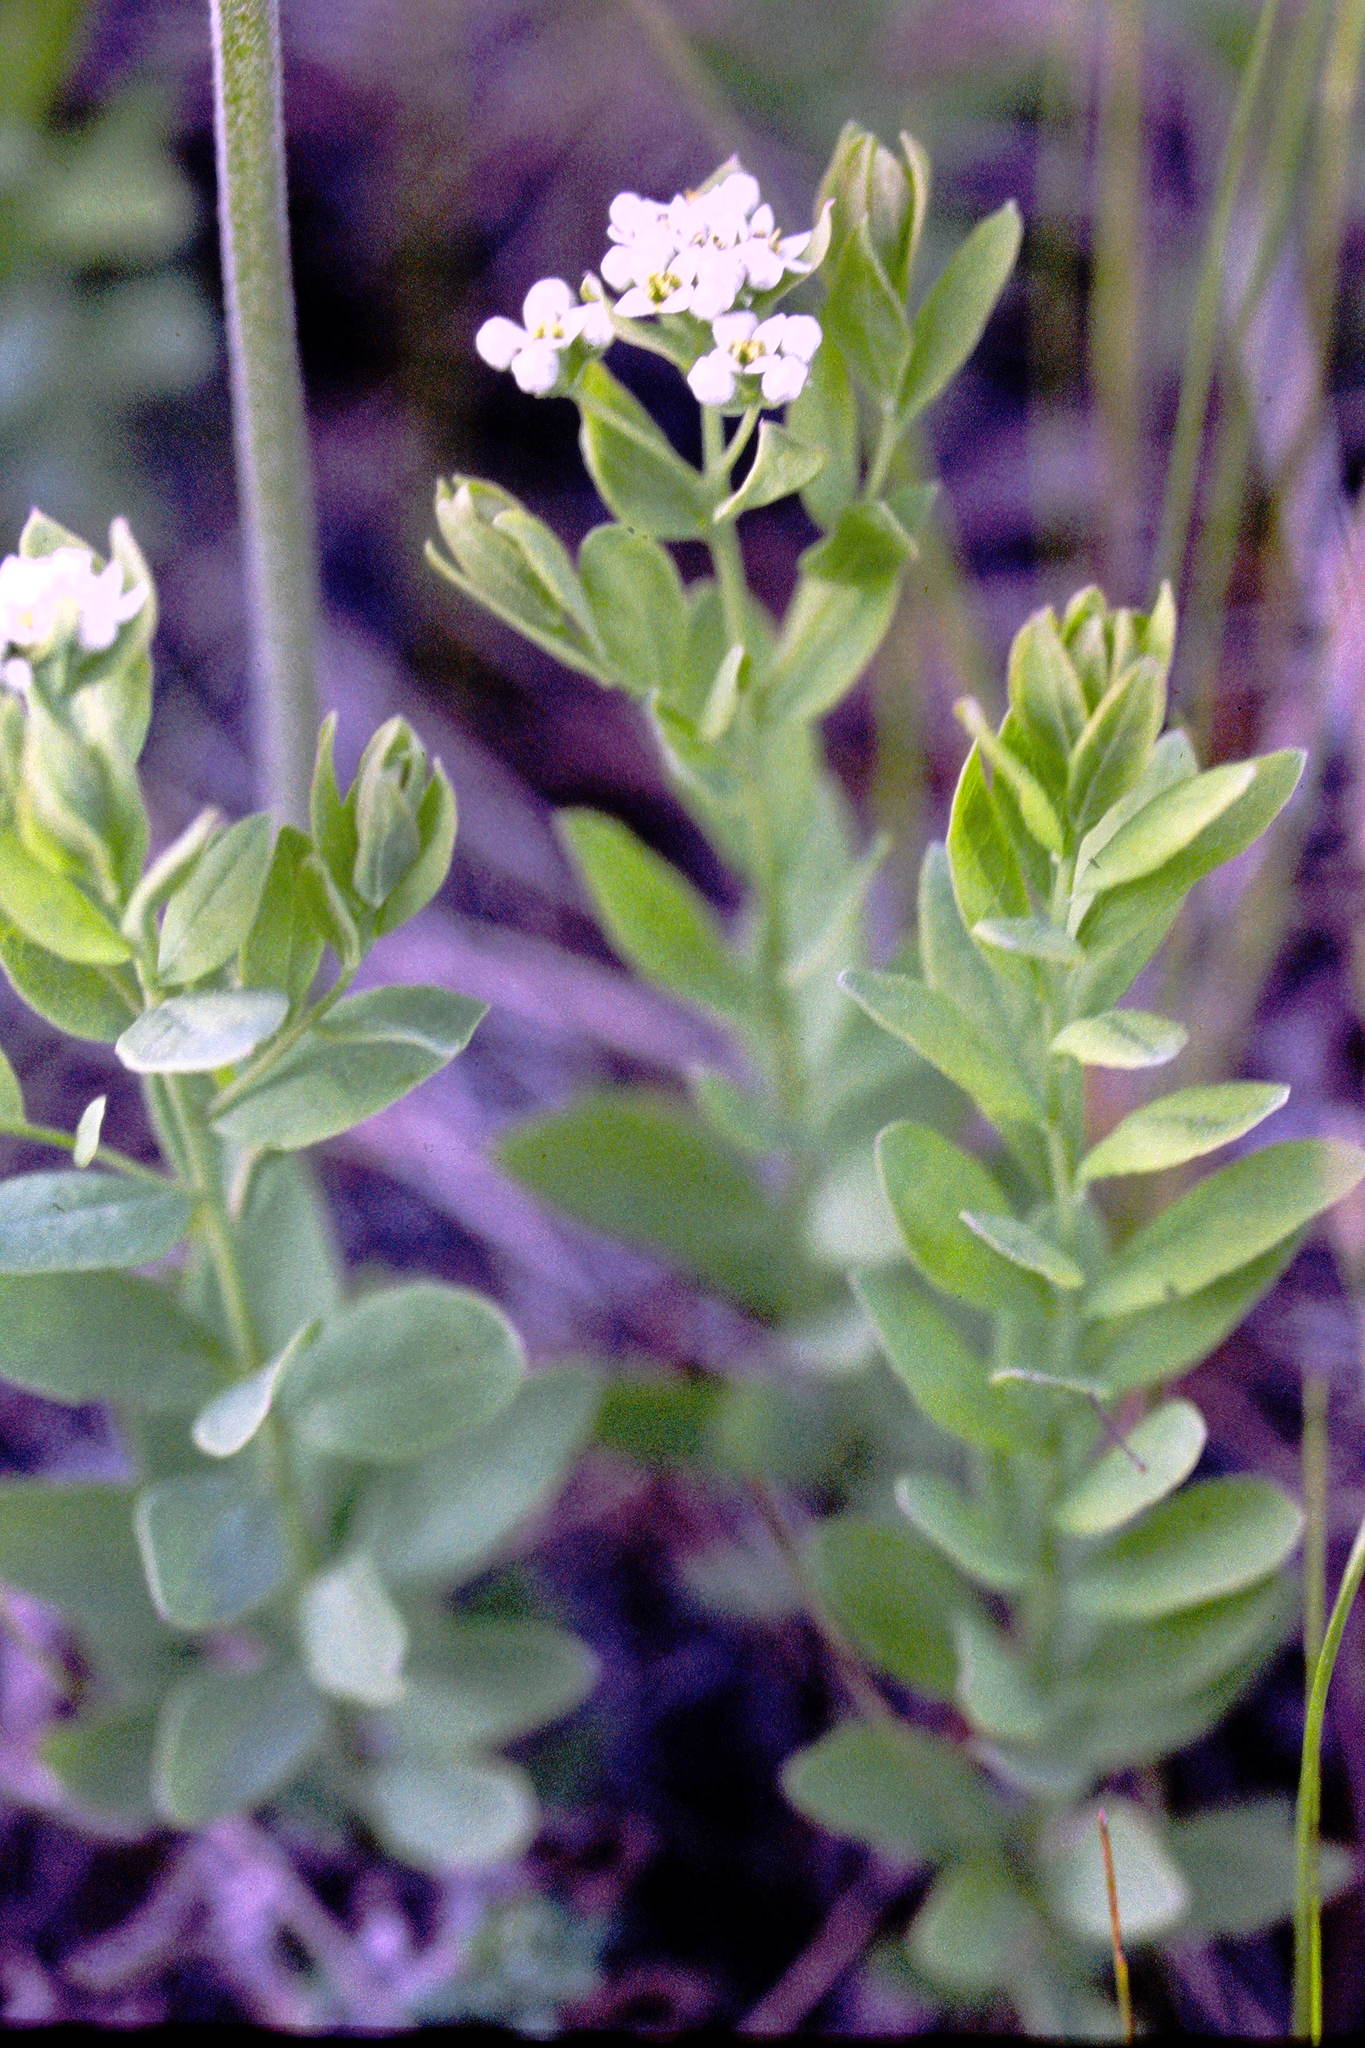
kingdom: Plantae
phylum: Tracheophyta
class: Magnoliopsida
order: Santalales
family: Comandraceae
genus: Comandra
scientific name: Comandra umbellata
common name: Bastard toadflax
